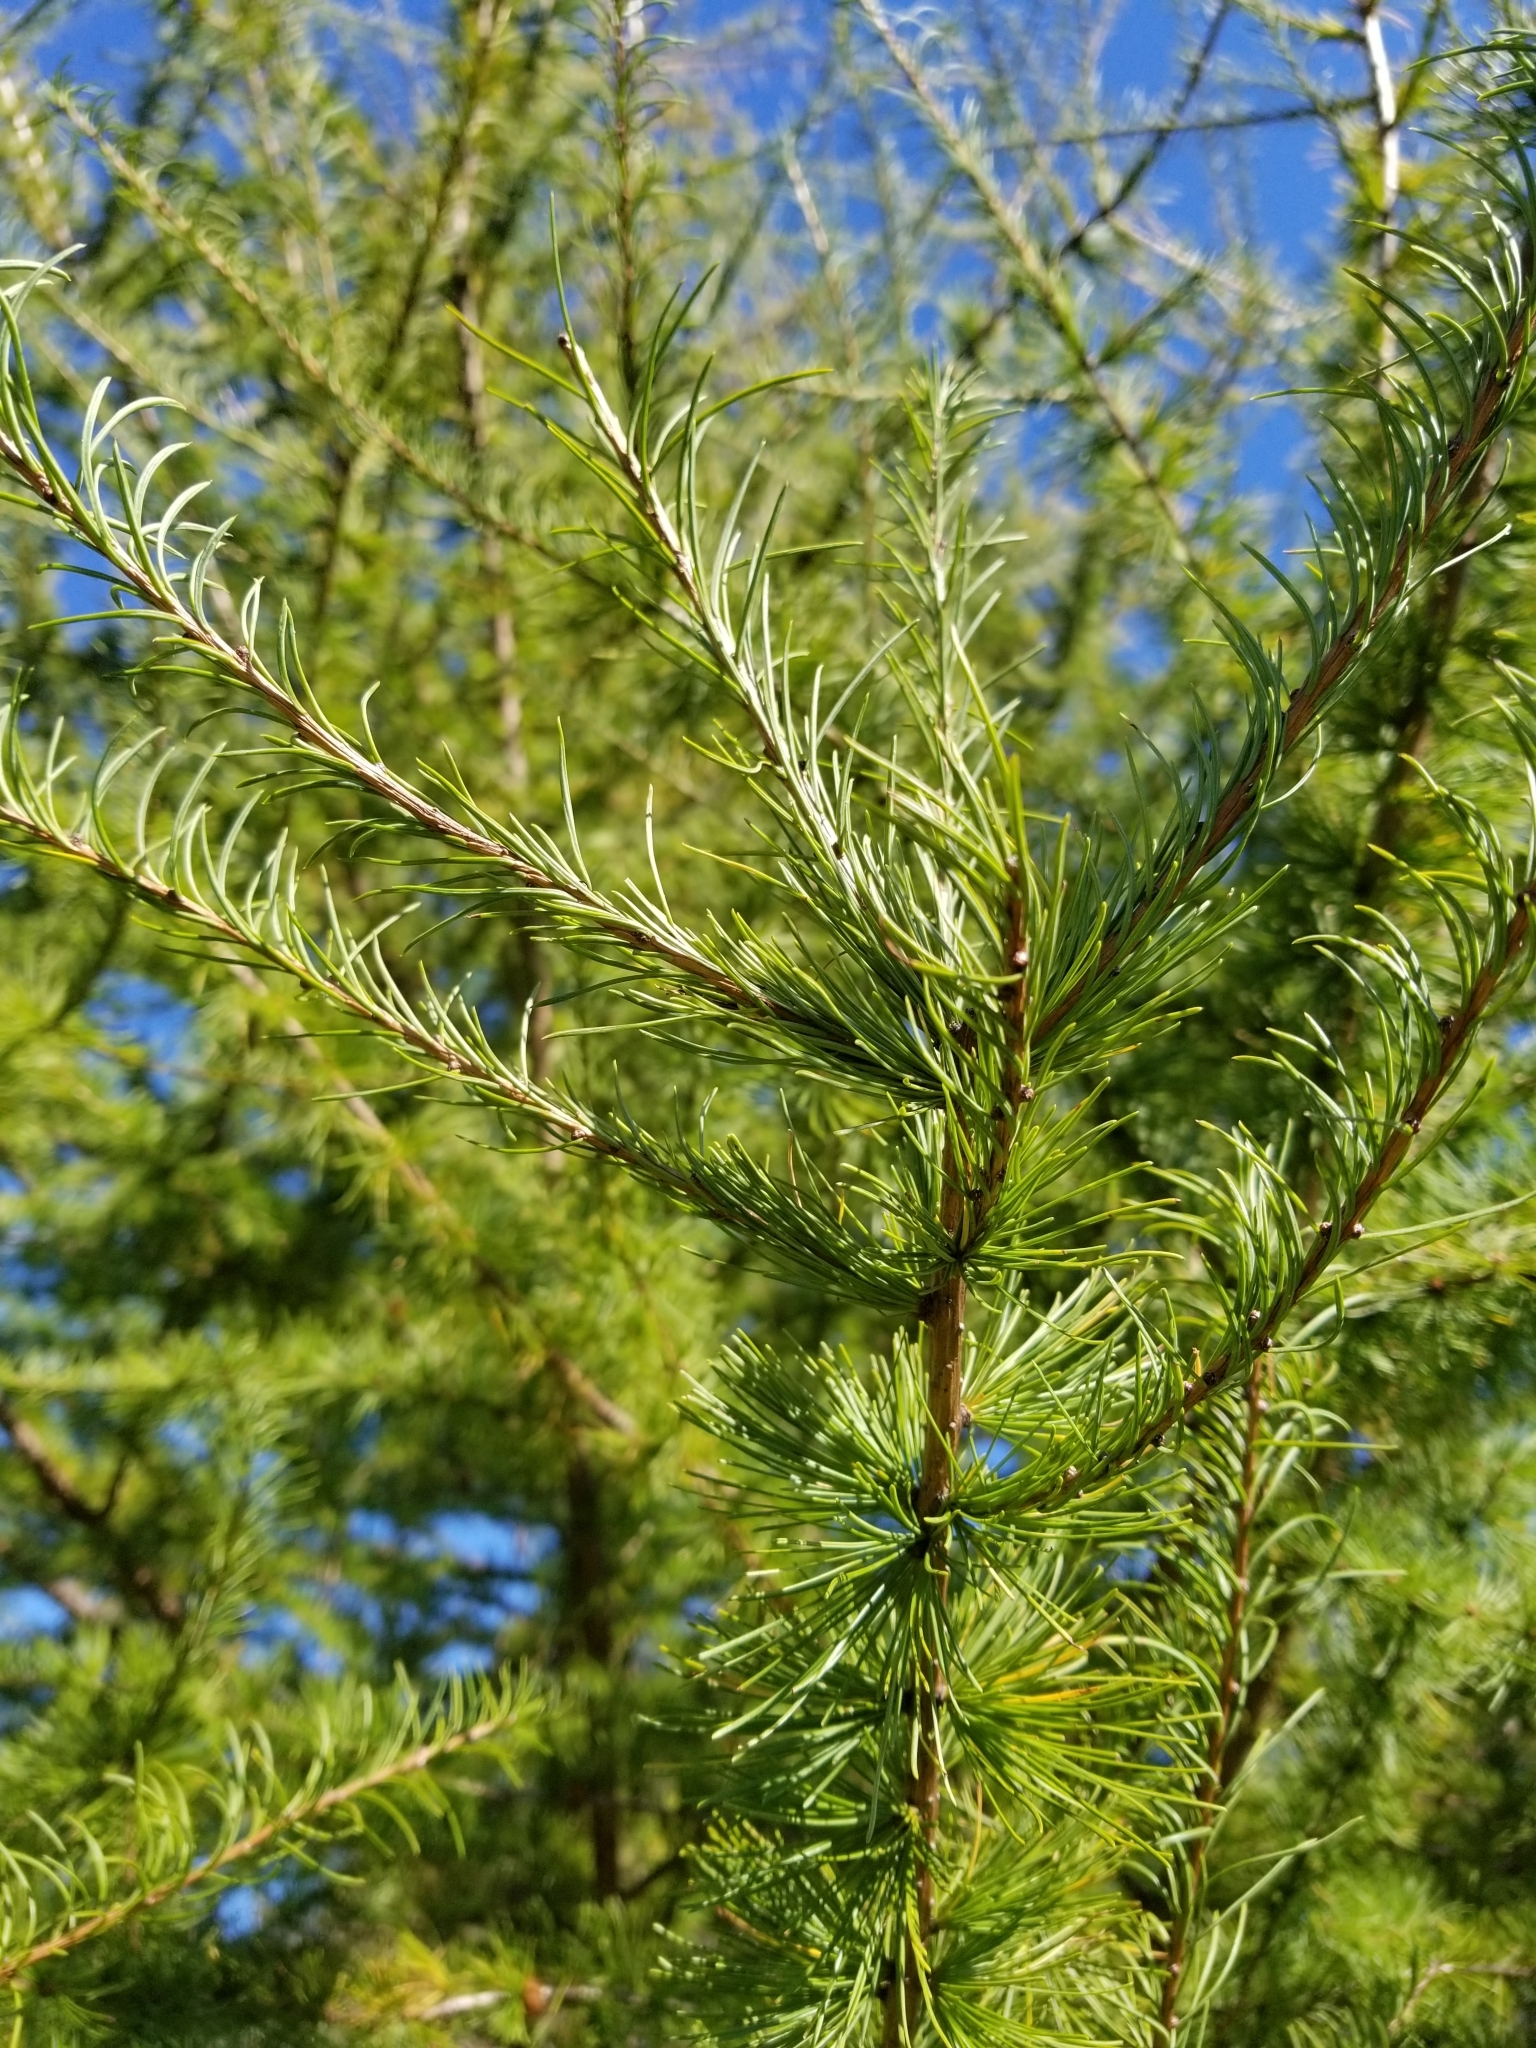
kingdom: Plantae
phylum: Tracheophyta
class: Pinopsida
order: Pinales
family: Pinaceae
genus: Larix
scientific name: Larix laricina
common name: American larch
